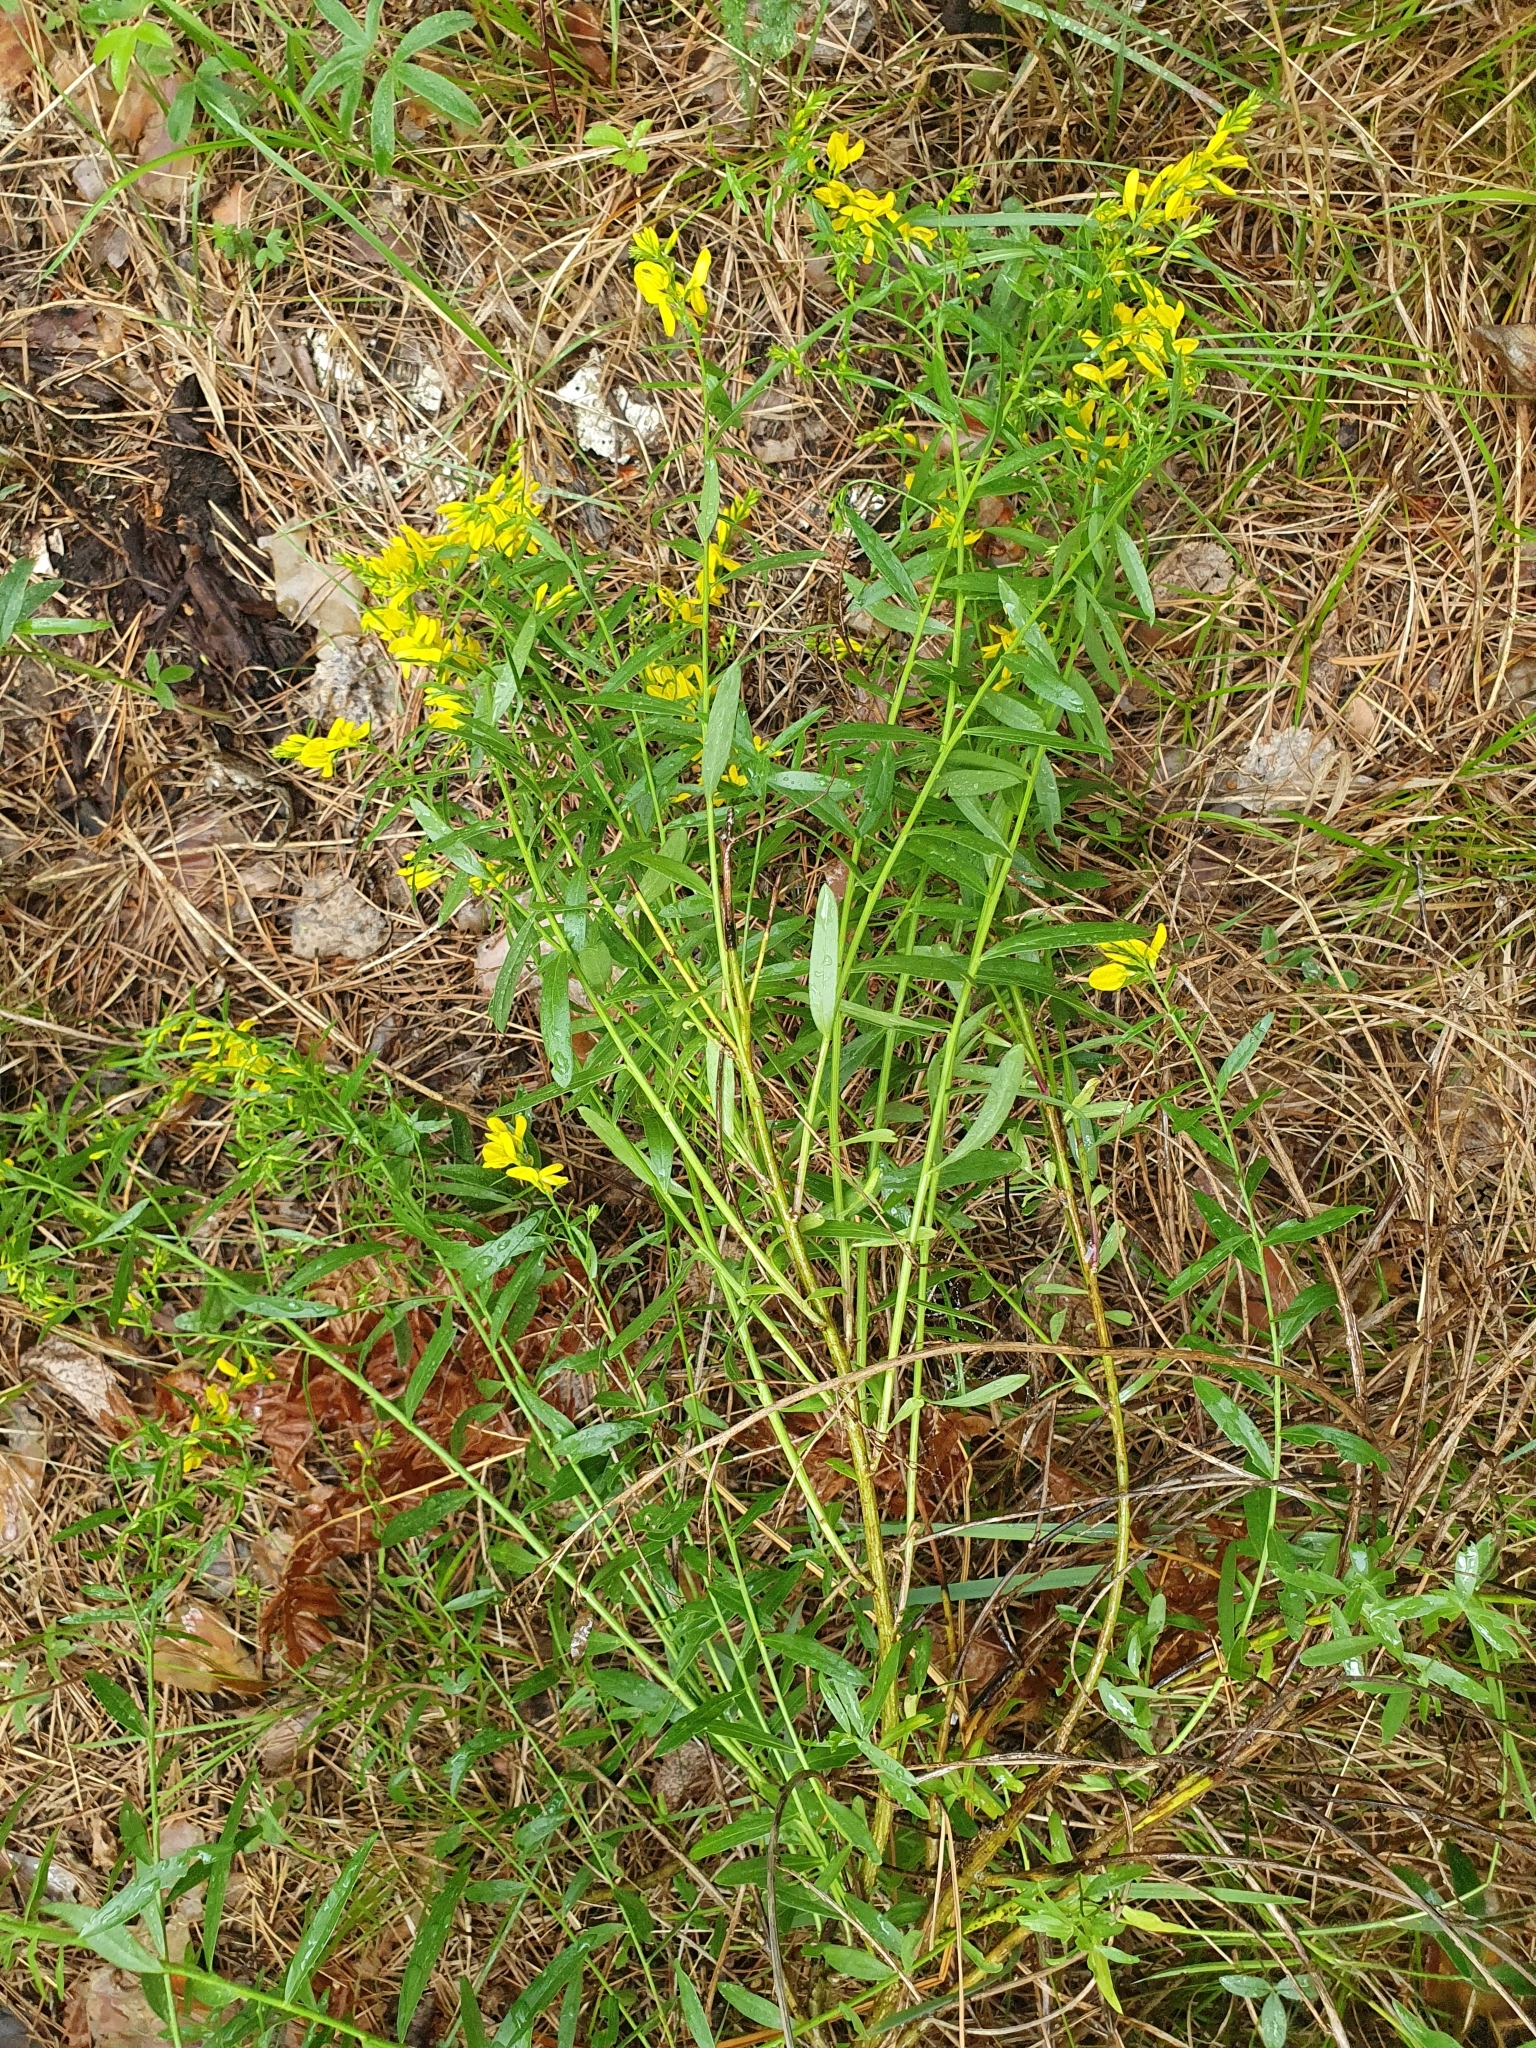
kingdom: Plantae
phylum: Tracheophyta
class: Magnoliopsida
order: Fabales
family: Fabaceae
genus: Genista
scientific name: Genista tinctoria
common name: Dyer's greenweed
